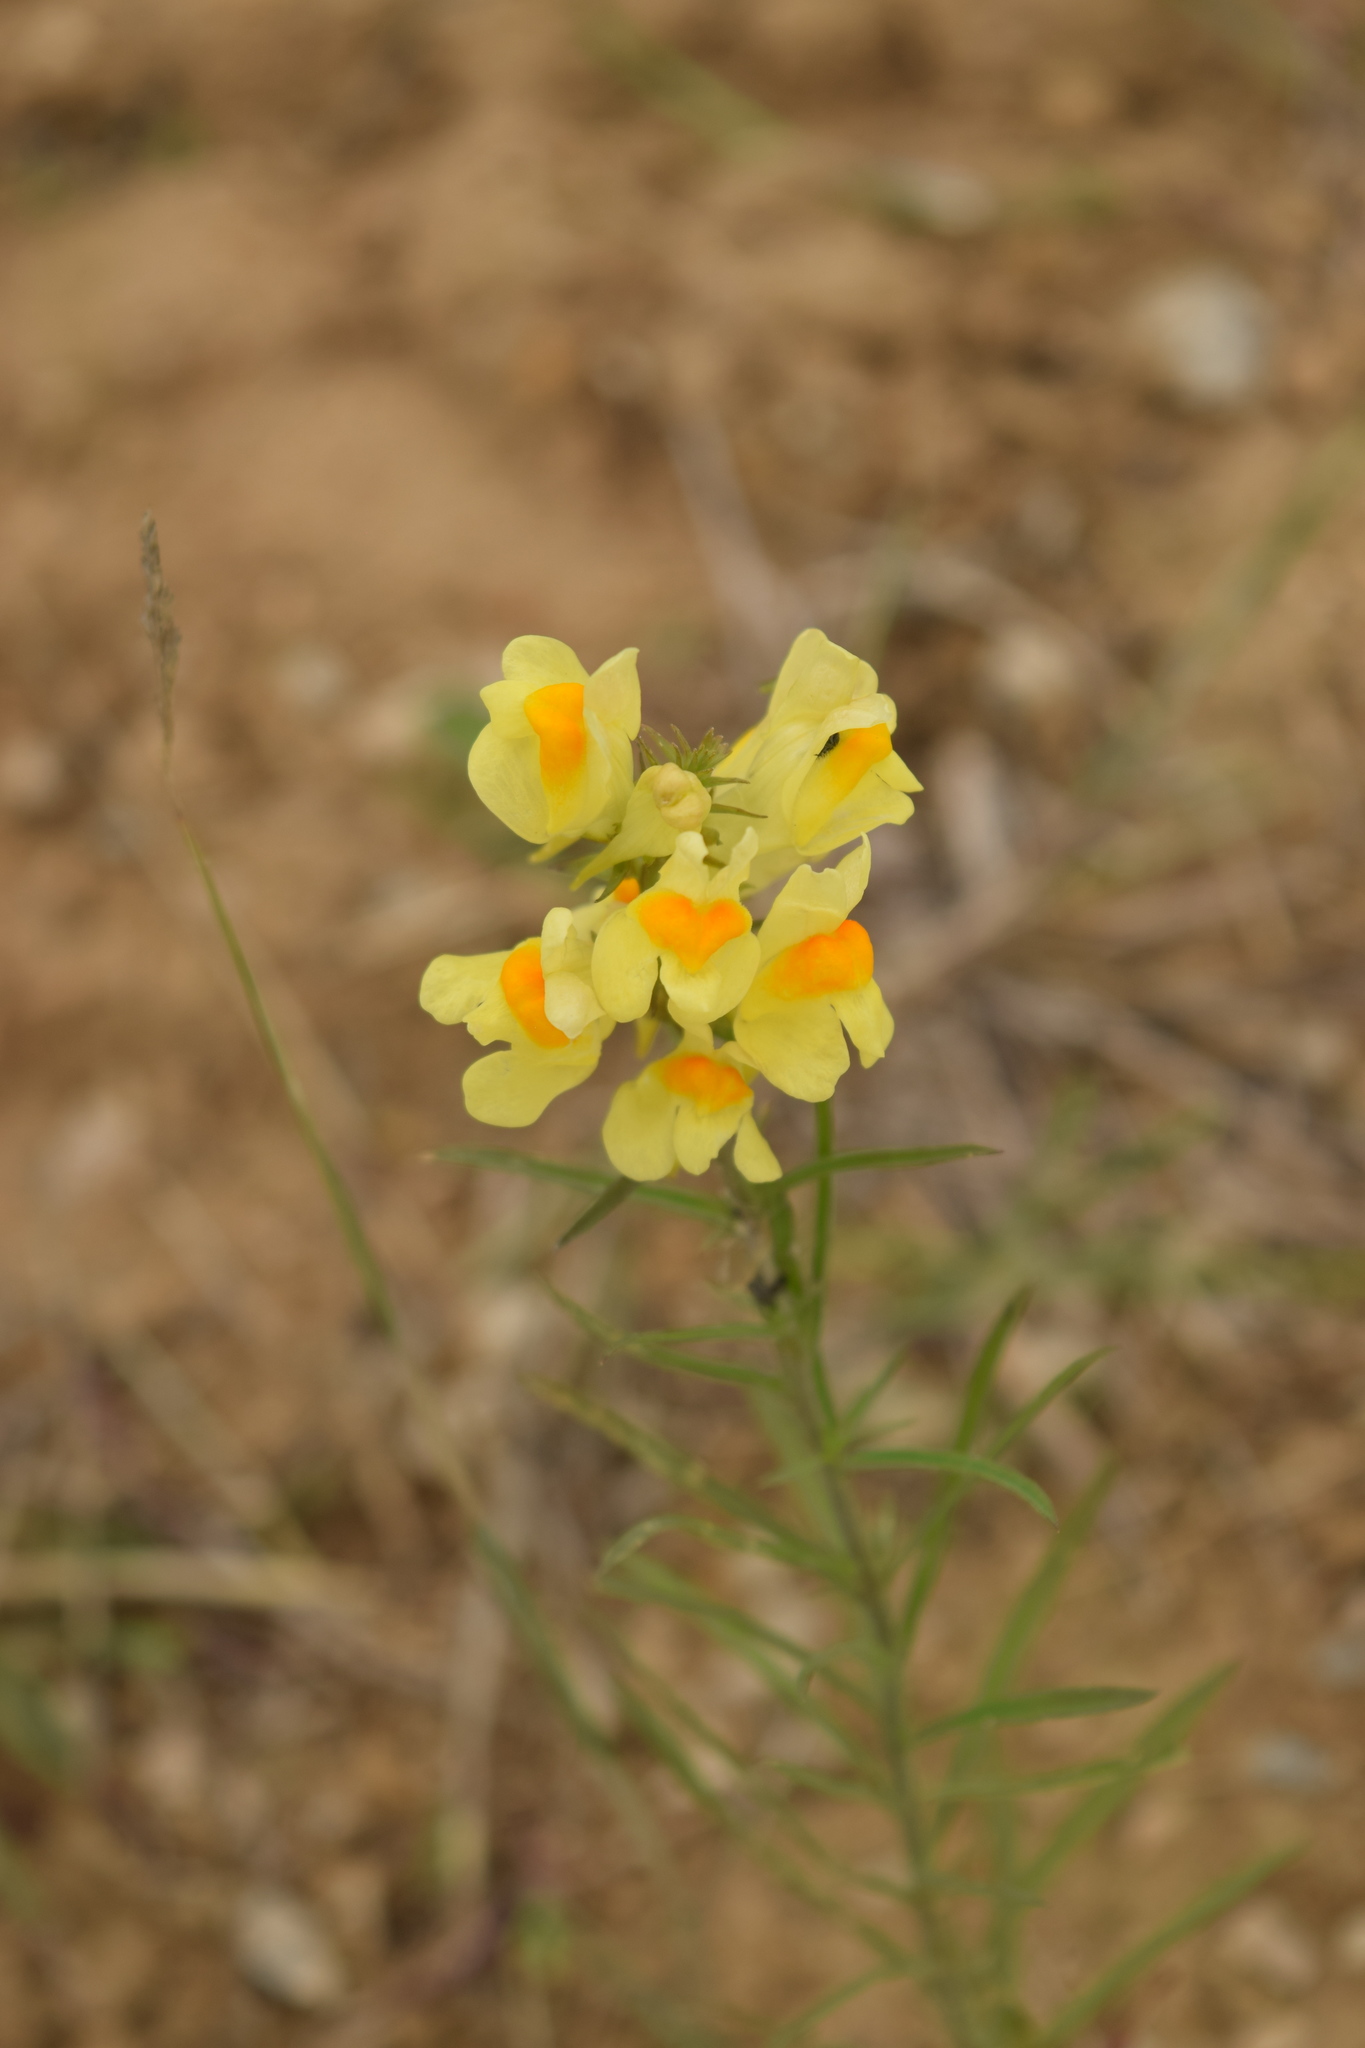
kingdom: Plantae
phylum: Tracheophyta
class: Magnoliopsida
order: Lamiales
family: Plantaginaceae
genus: Linaria
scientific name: Linaria vulgaris
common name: Butter and eggs
